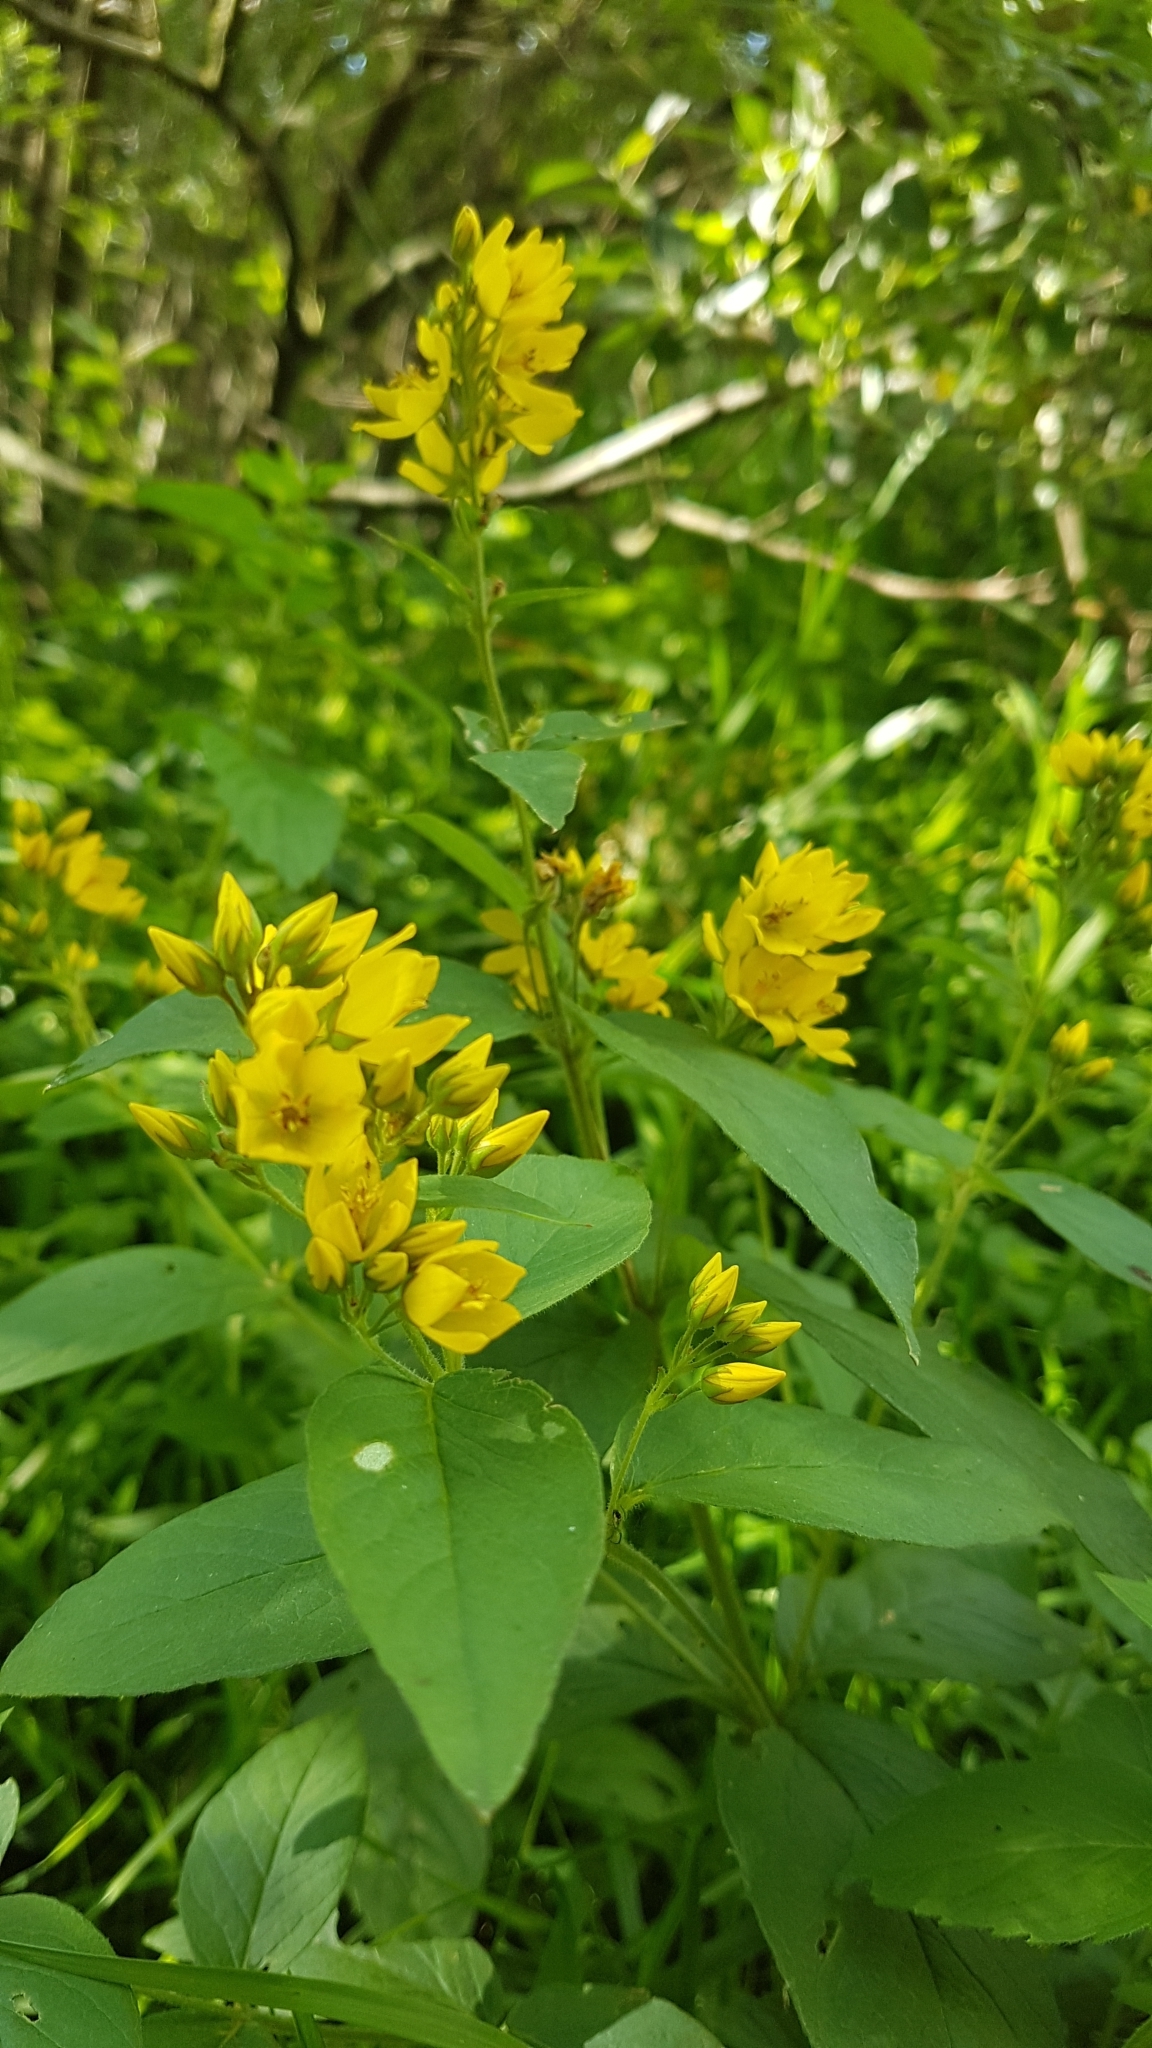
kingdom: Plantae
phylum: Tracheophyta
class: Magnoliopsida
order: Ericales
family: Primulaceae
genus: Lysimachia
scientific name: Lysimachia vulgaris
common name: Yellow loosestrife
